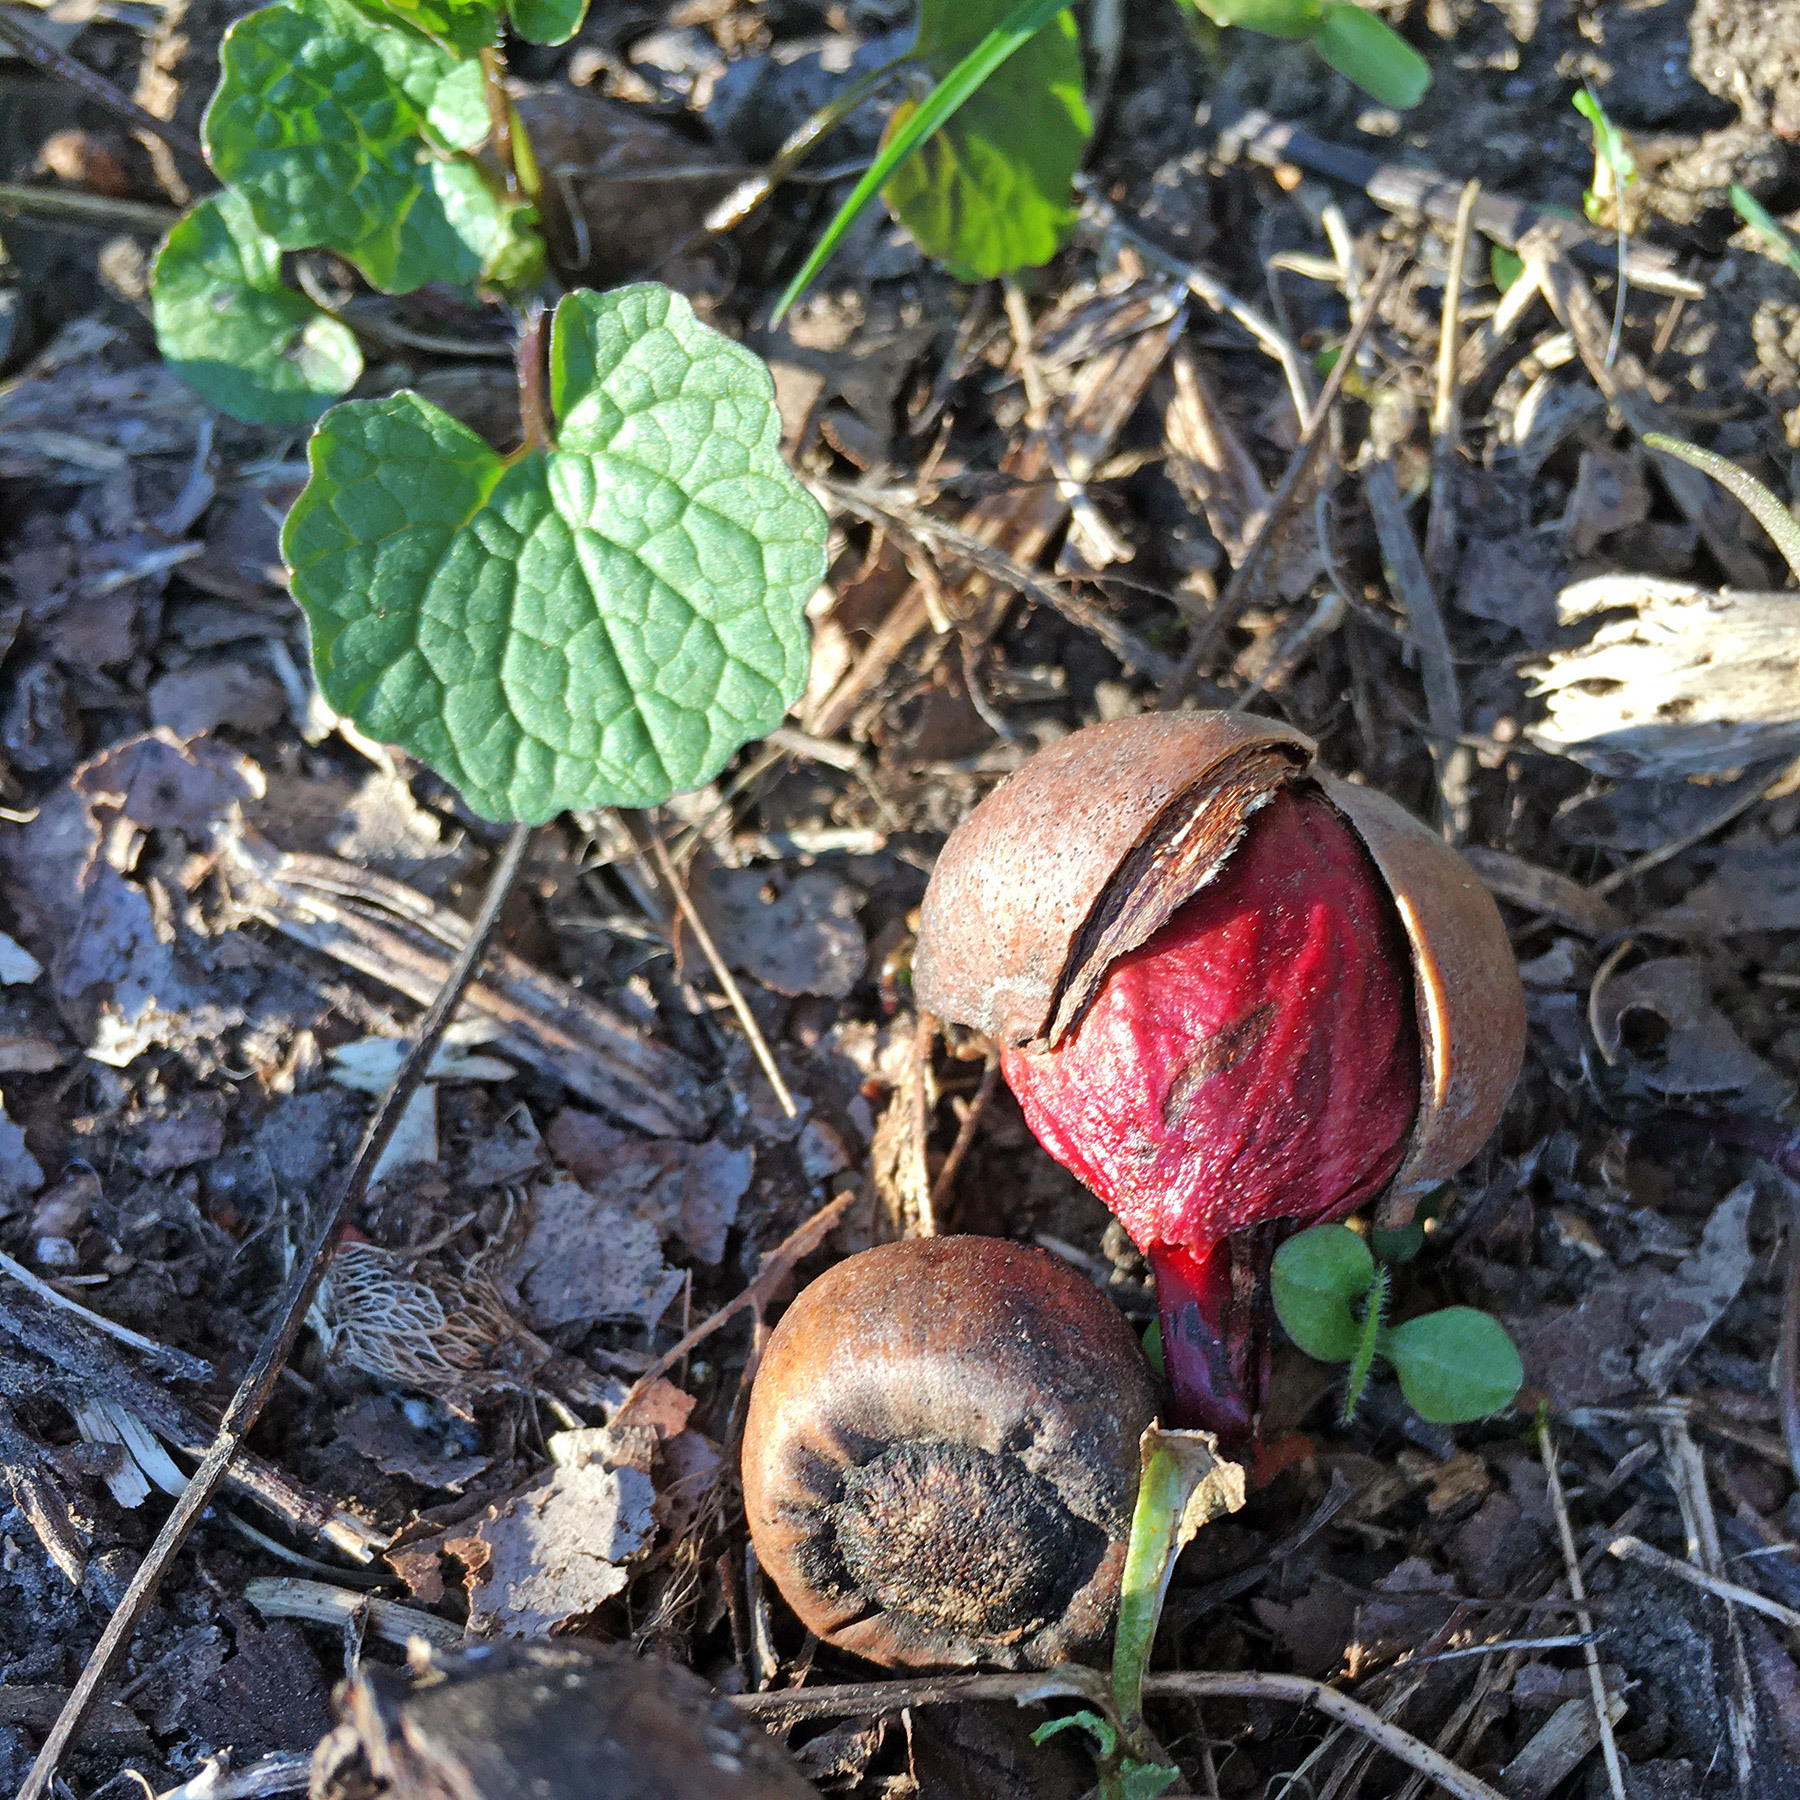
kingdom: Plantae
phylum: Tracheophyta
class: Magnoliopsida
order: Fagales
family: Fagaceae
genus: Quercus
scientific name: Quercus rubra
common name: Red oak
